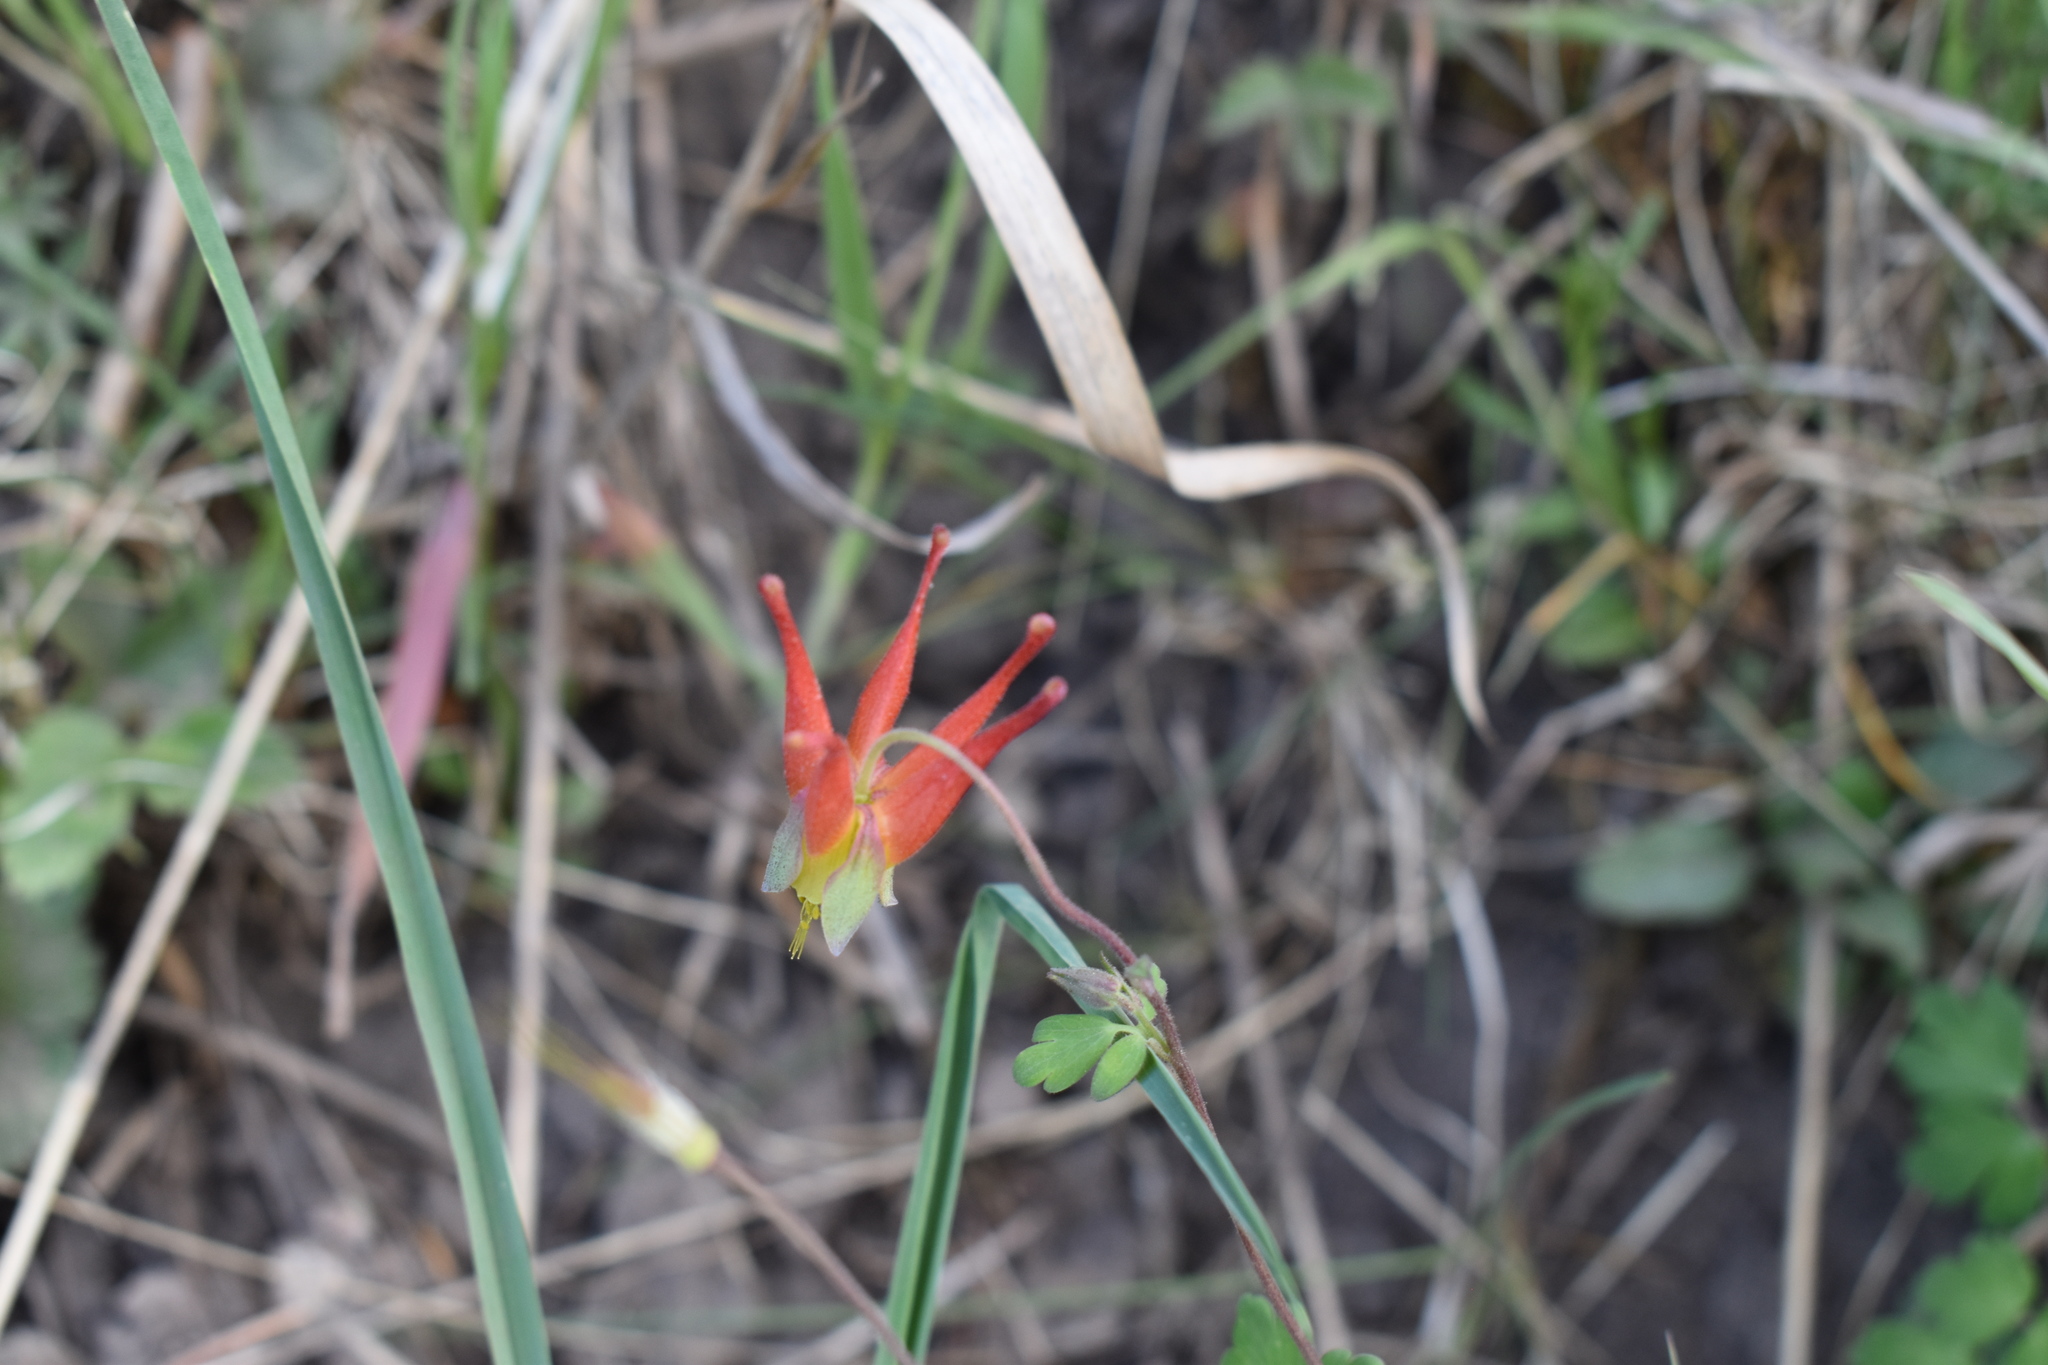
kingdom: Plantae
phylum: Tracheophyta
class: Magnoliopsida
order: Ranunculales
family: Ranunculaceae
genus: Aquilegia
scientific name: Aquilegia elegantula
